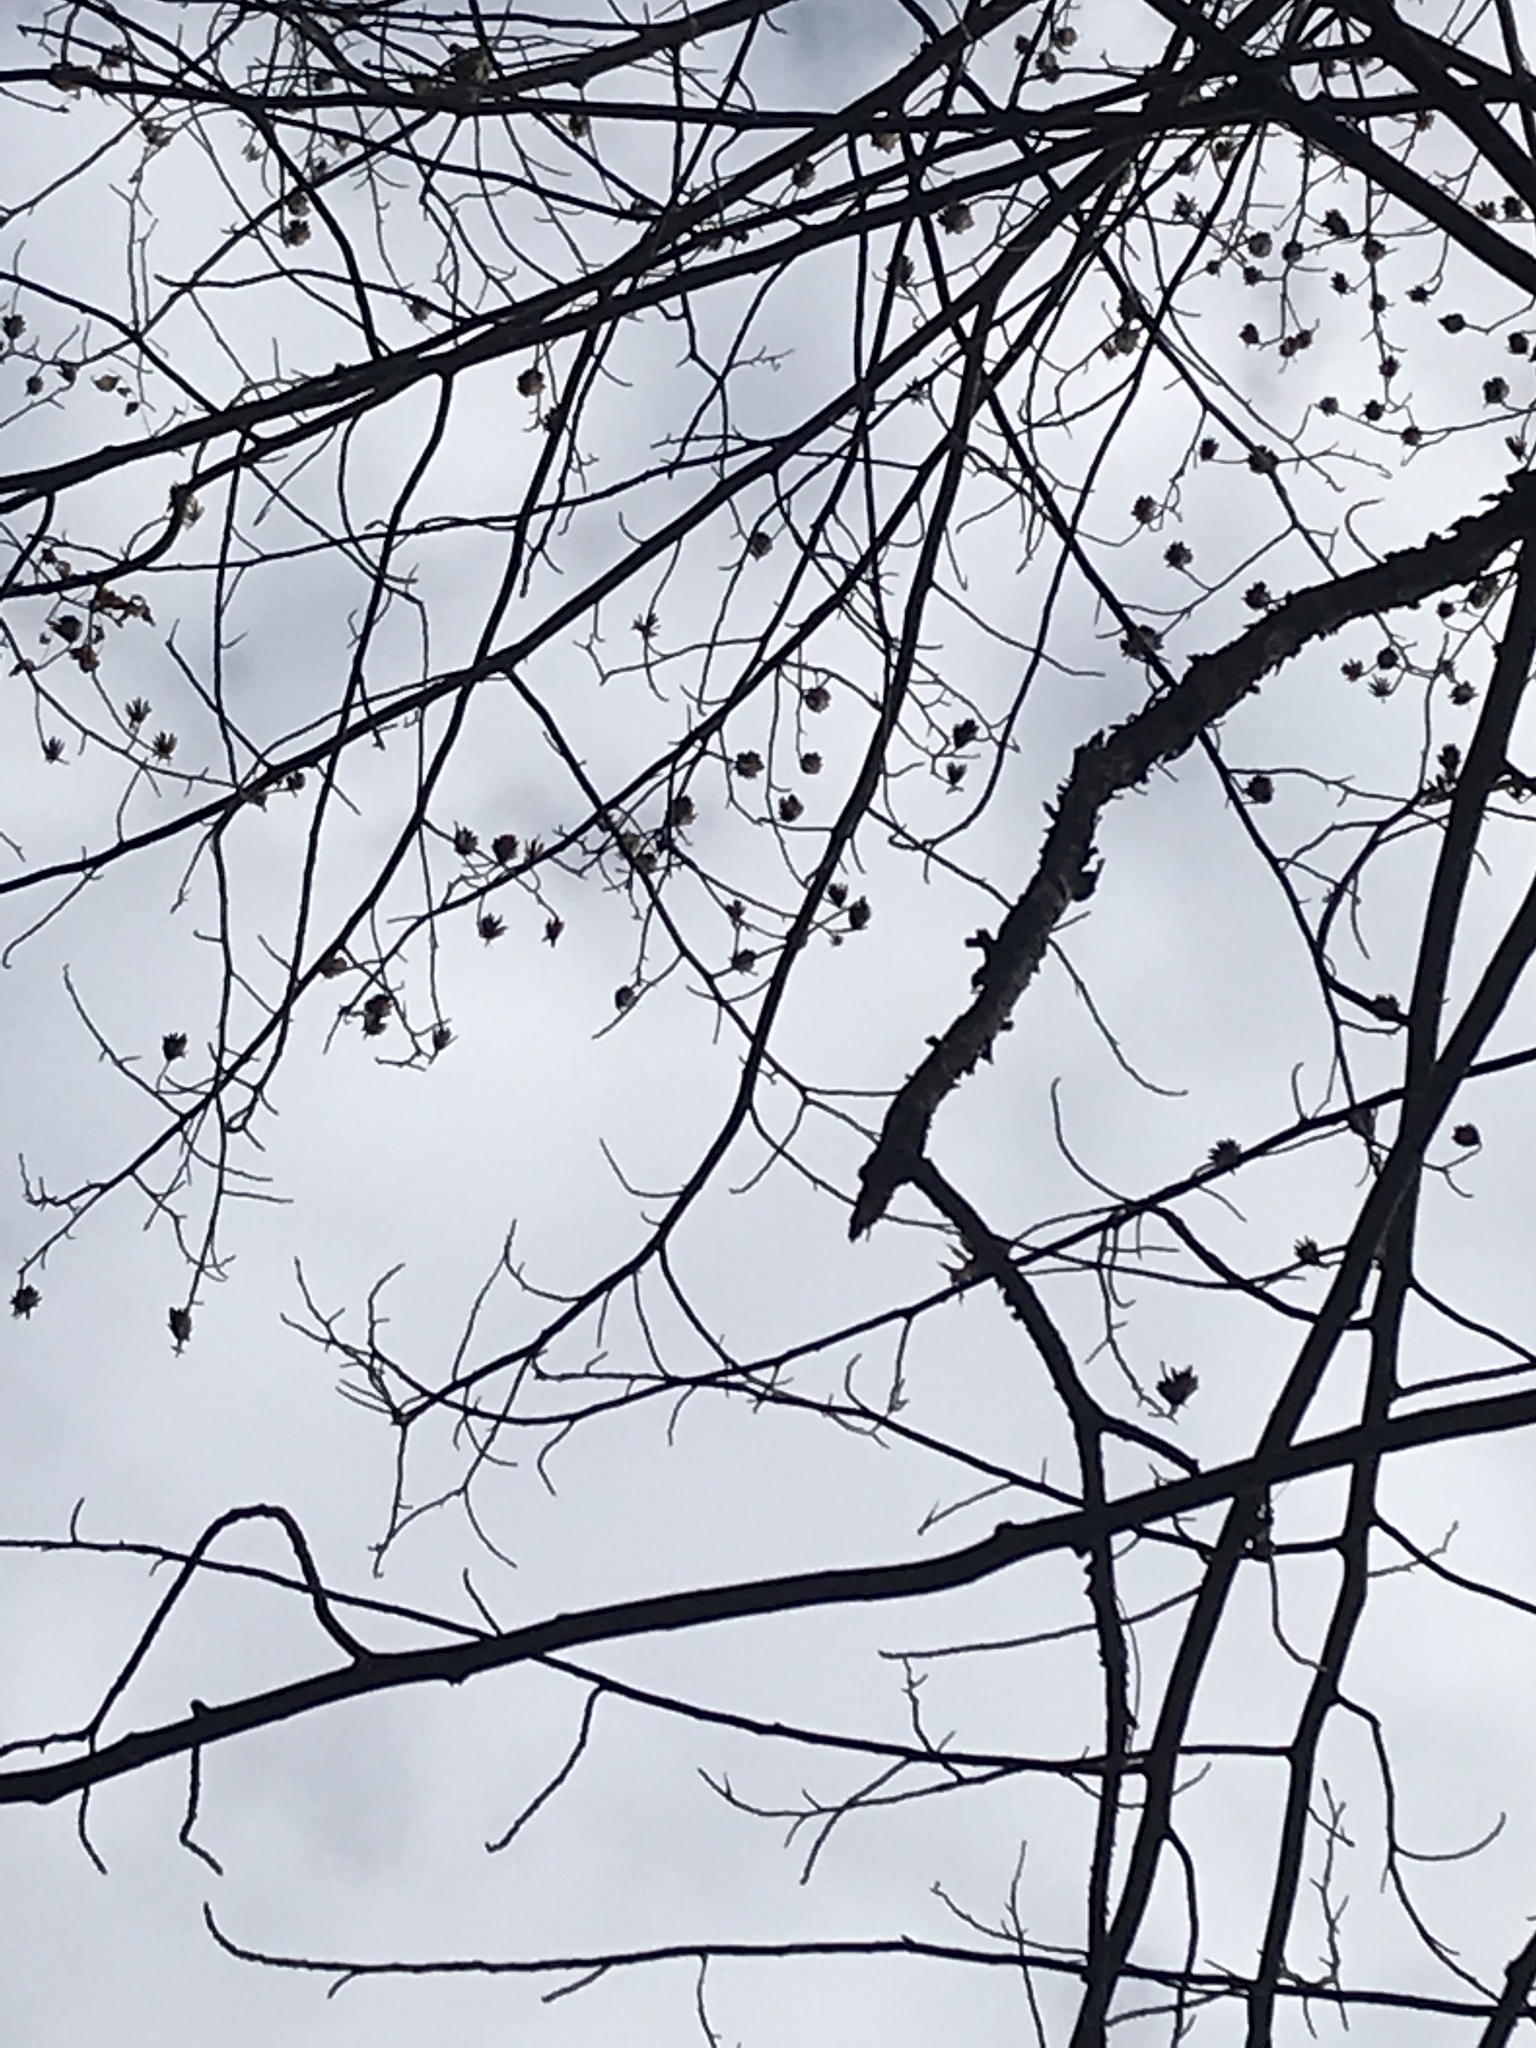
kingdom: Plantae
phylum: Tracheophyta
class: Magnoliopsida
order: Magnoliales
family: Magnoliaceae
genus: Liriodendron
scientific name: Liriodendron tulipifera
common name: Tulip tree
